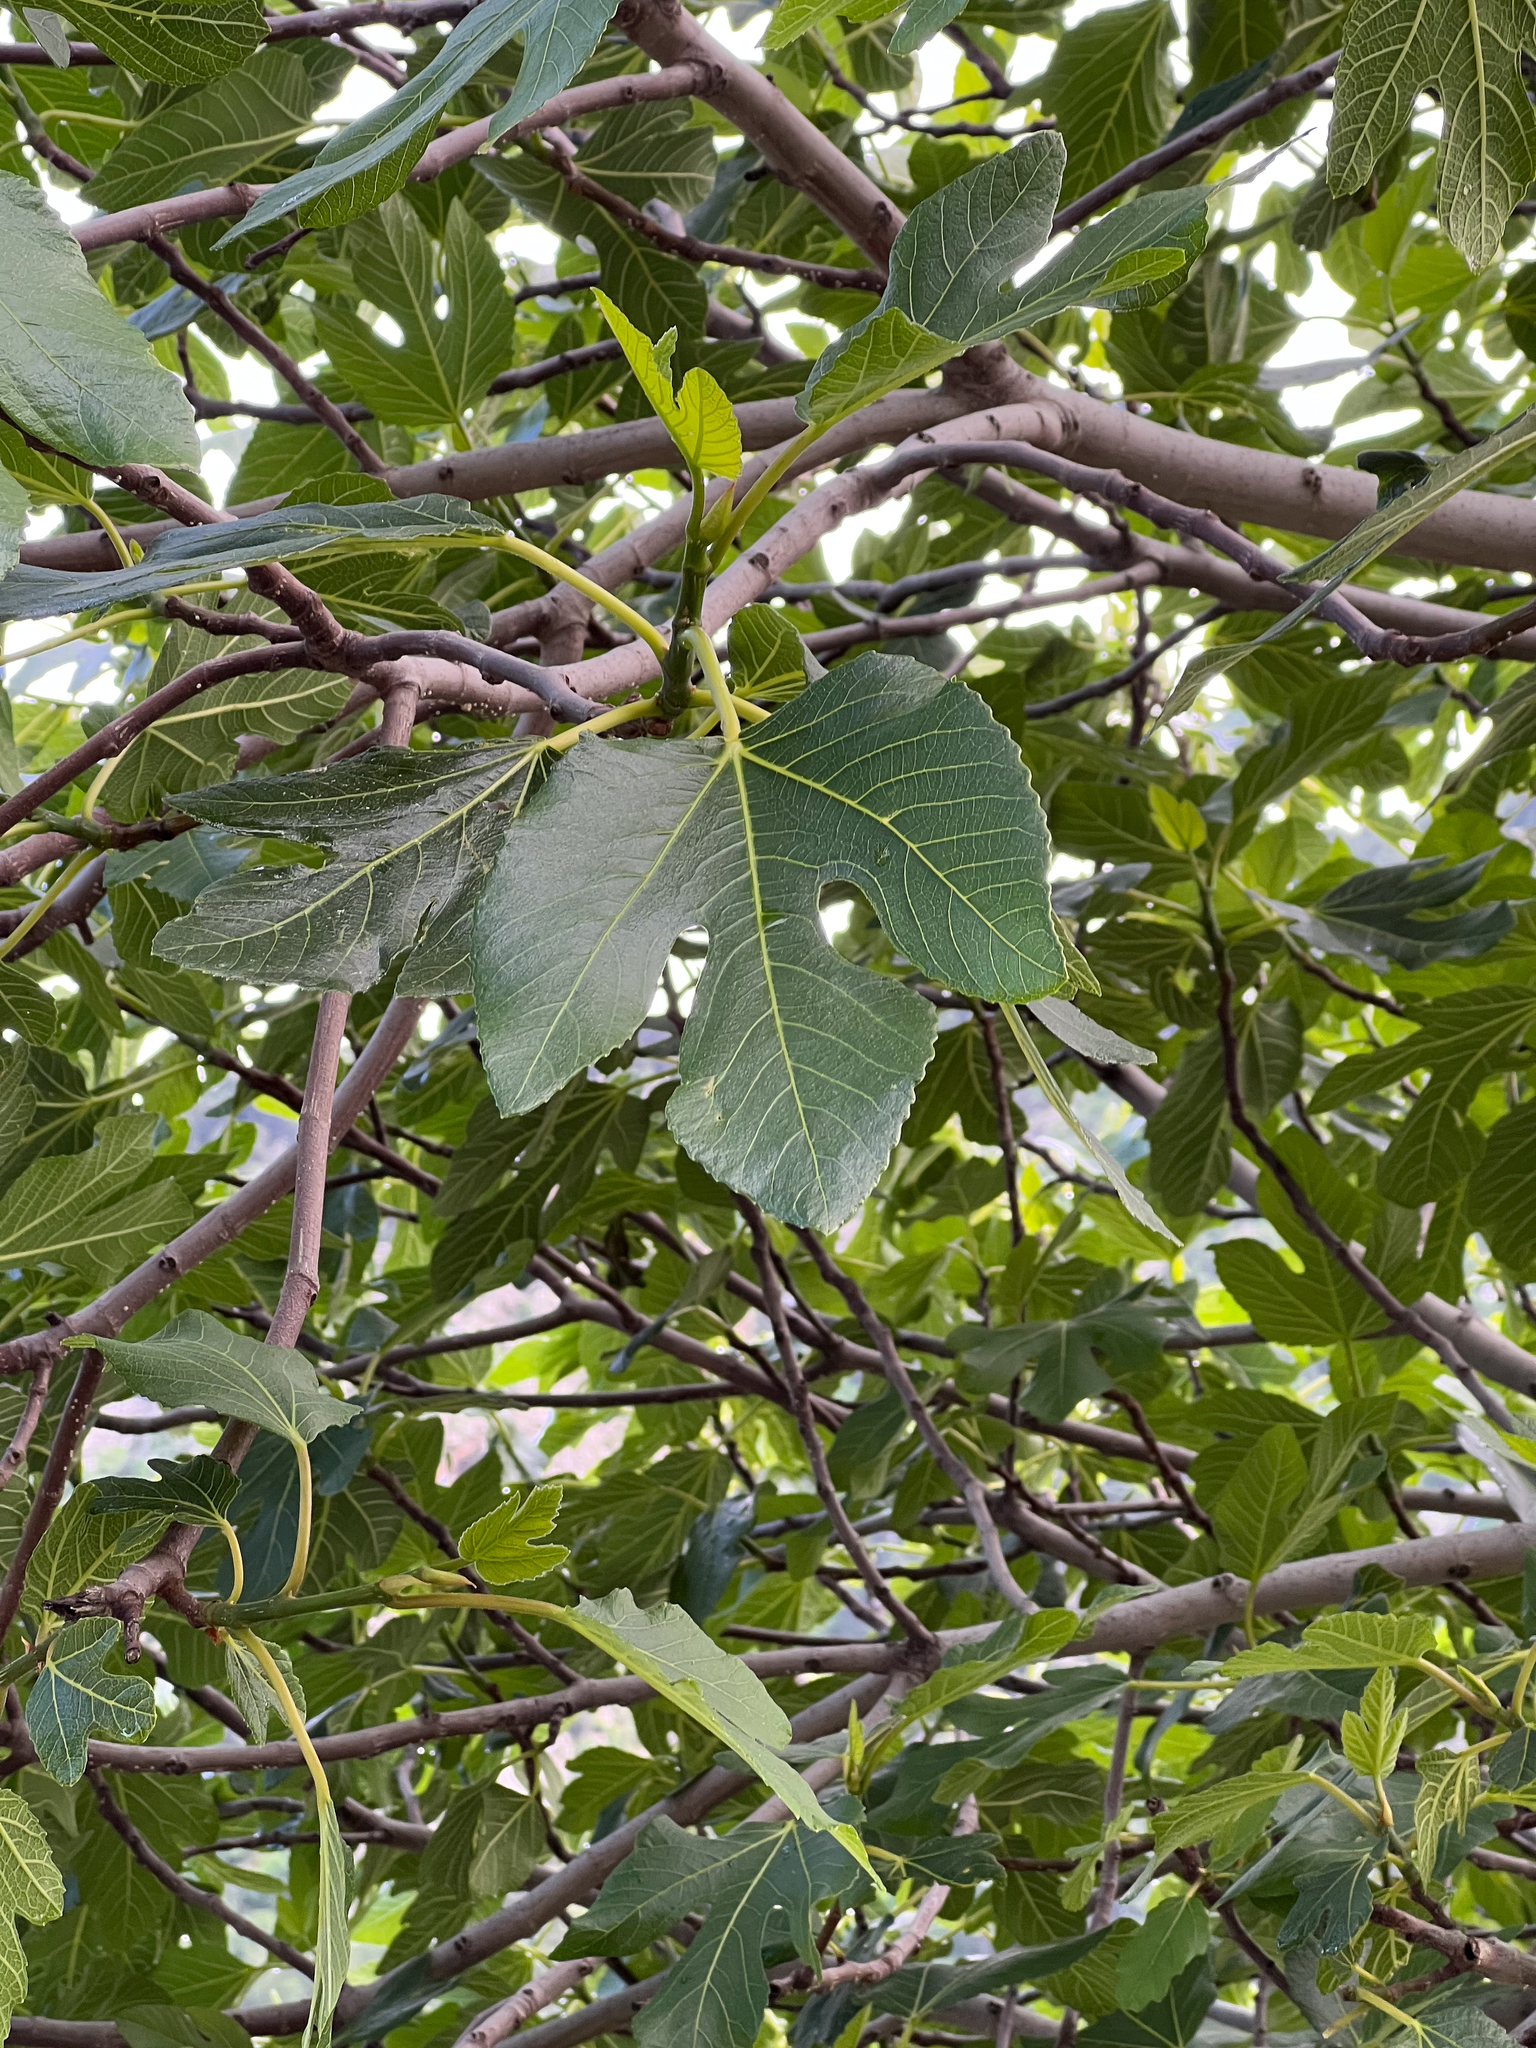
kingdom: Plantae
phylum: Tracheophyta
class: Magnoliopsida
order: Rosales
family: Moraceae
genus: Ficus
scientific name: Ficus carica
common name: Fig
